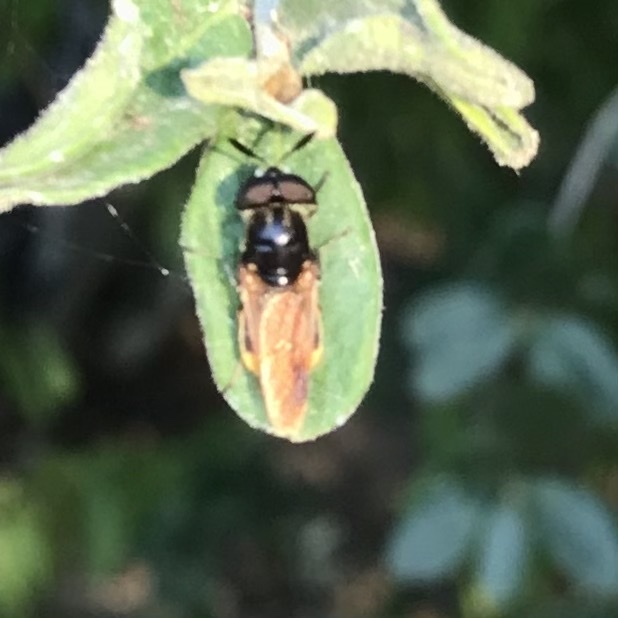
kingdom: Animalia
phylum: Arthropoda
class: Insecta
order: Diptera
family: Stratiomyidae
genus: Hoplitimyia
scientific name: Hoplitimyia mutabilis
